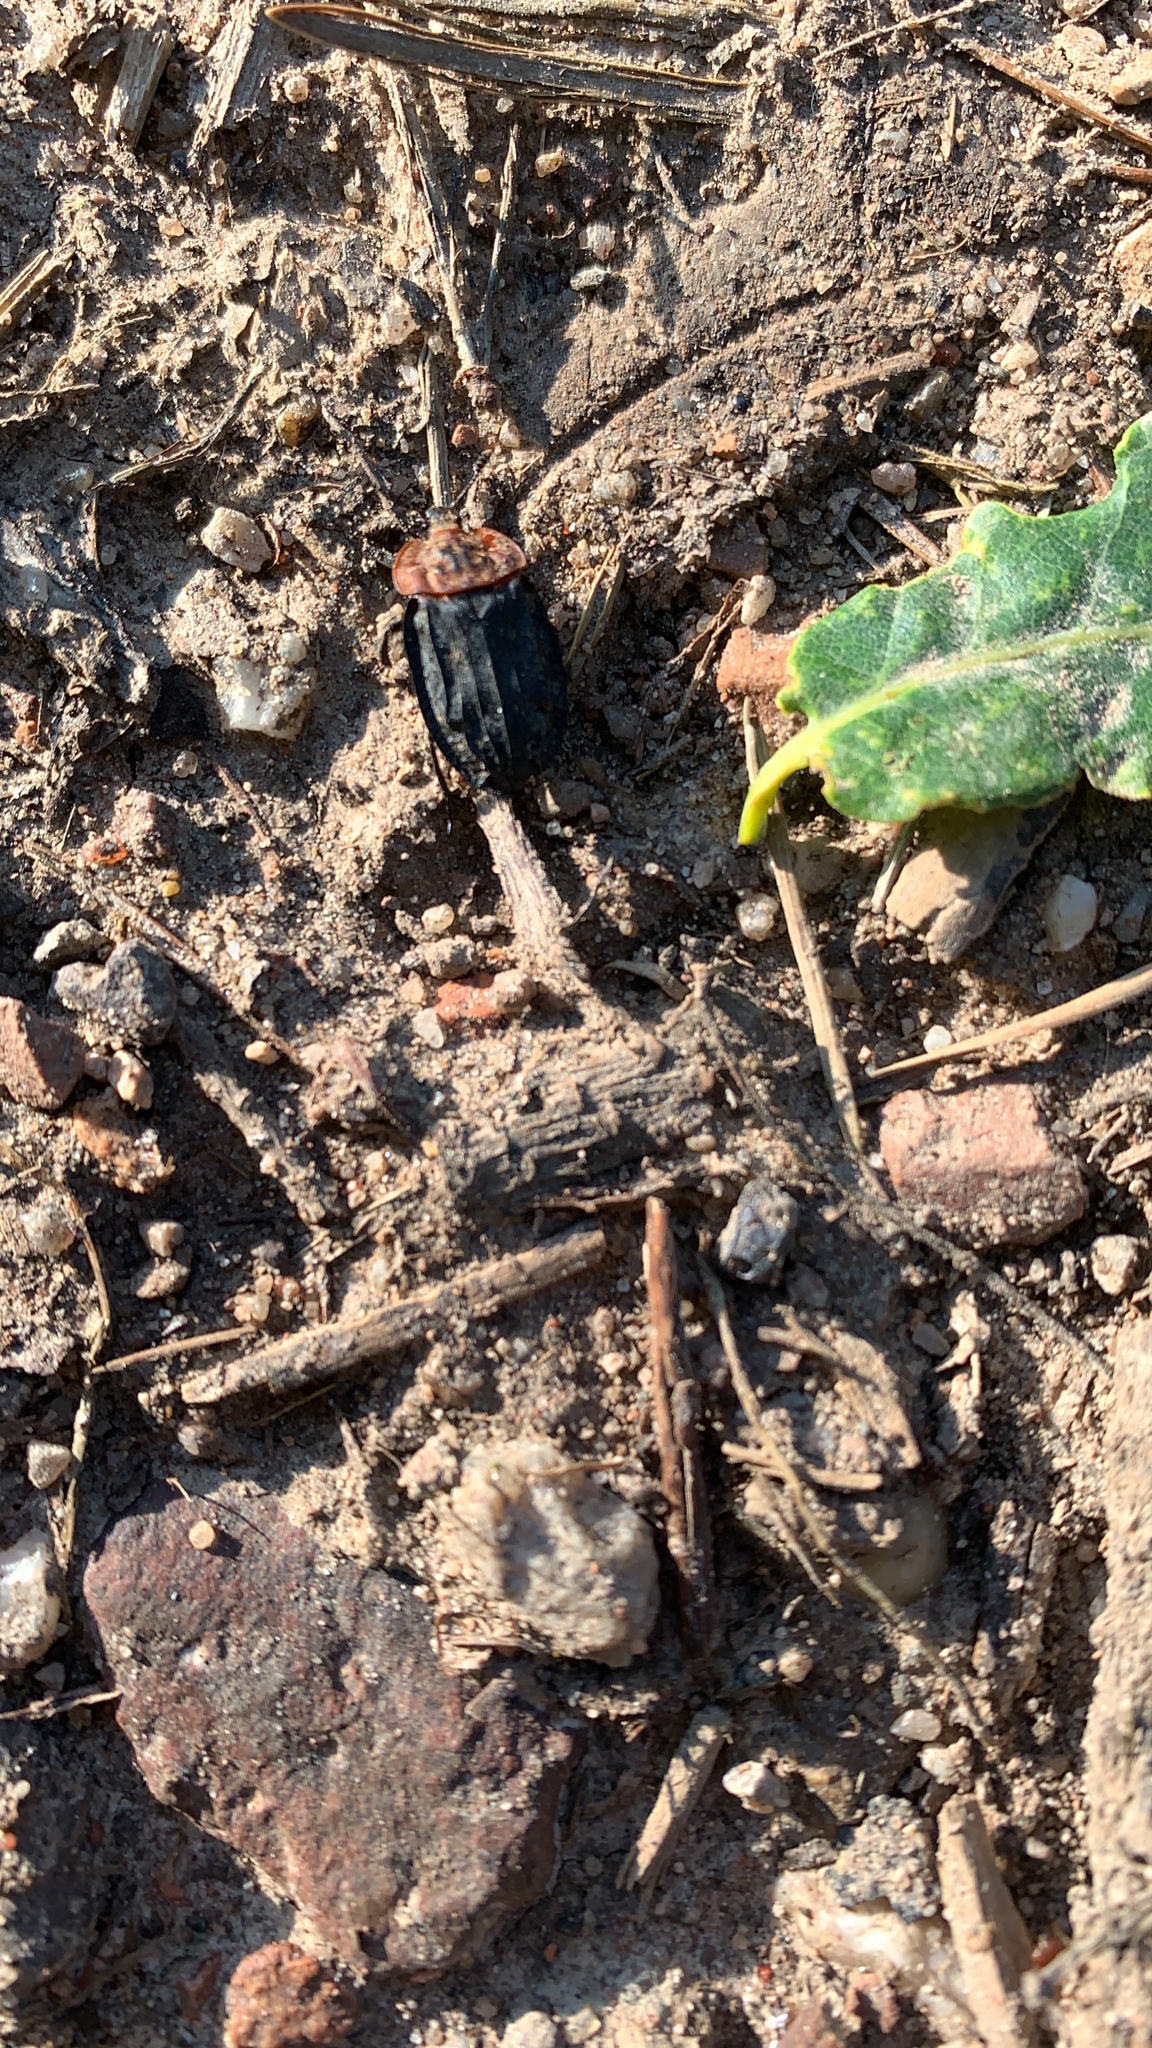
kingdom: Animalia
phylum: Arthropoda
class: Insecta
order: Coleoptera
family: Staphylinidae
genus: Oiceoptoma
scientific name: Oiceoptoma thoracicum
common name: Red-breasted carrion beetle
